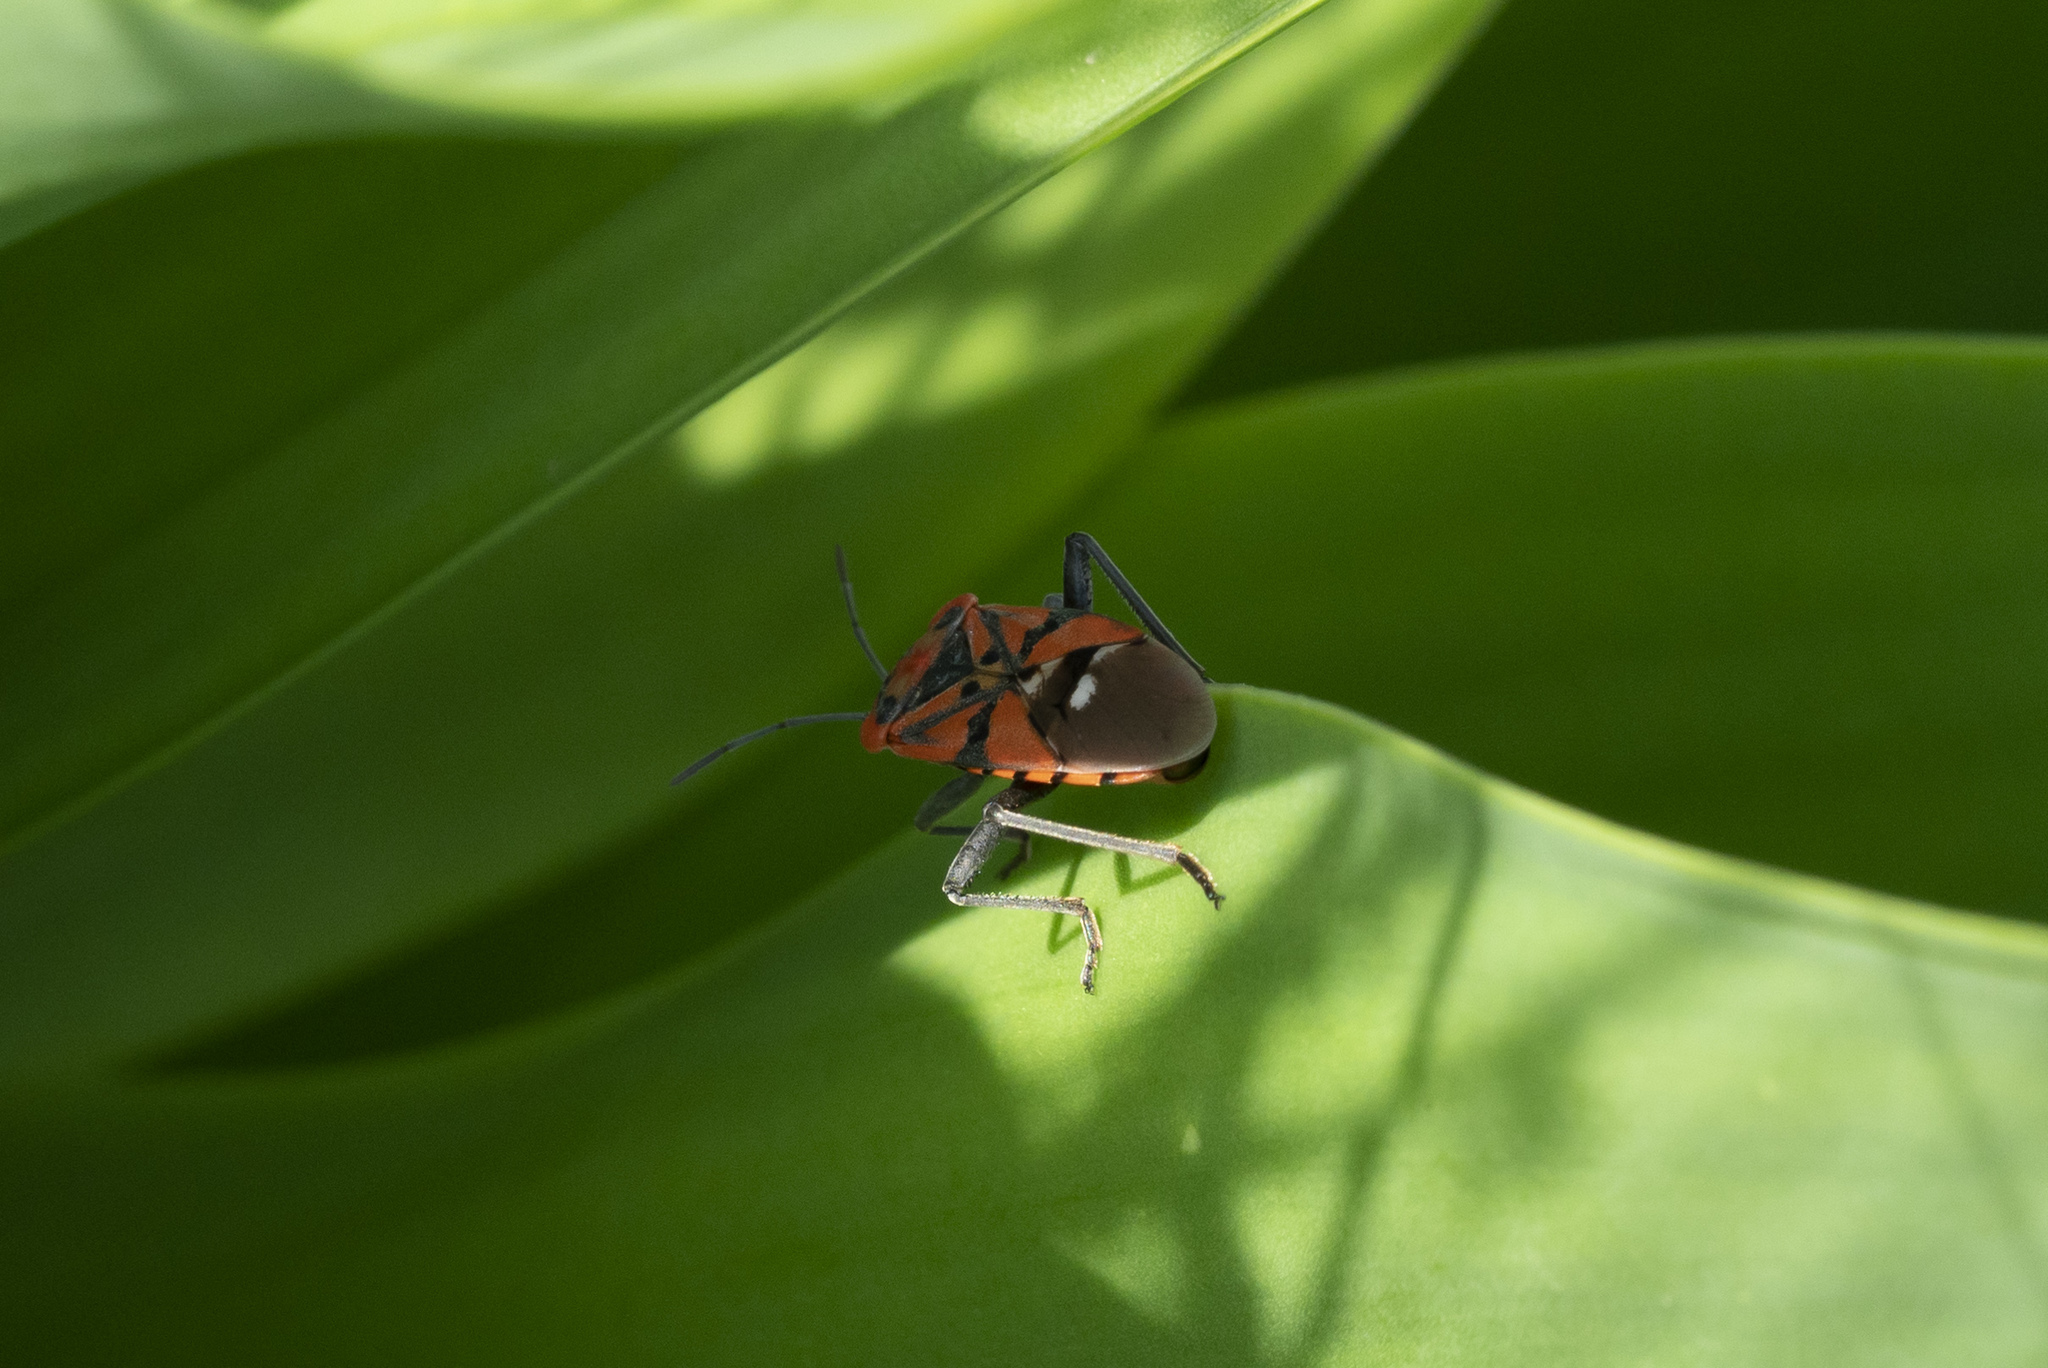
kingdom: Animalia
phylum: Arthropoda
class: Insecta
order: Hemiptera
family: Lygaeidae
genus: Spilostethus
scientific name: Spilostethus pandurus
